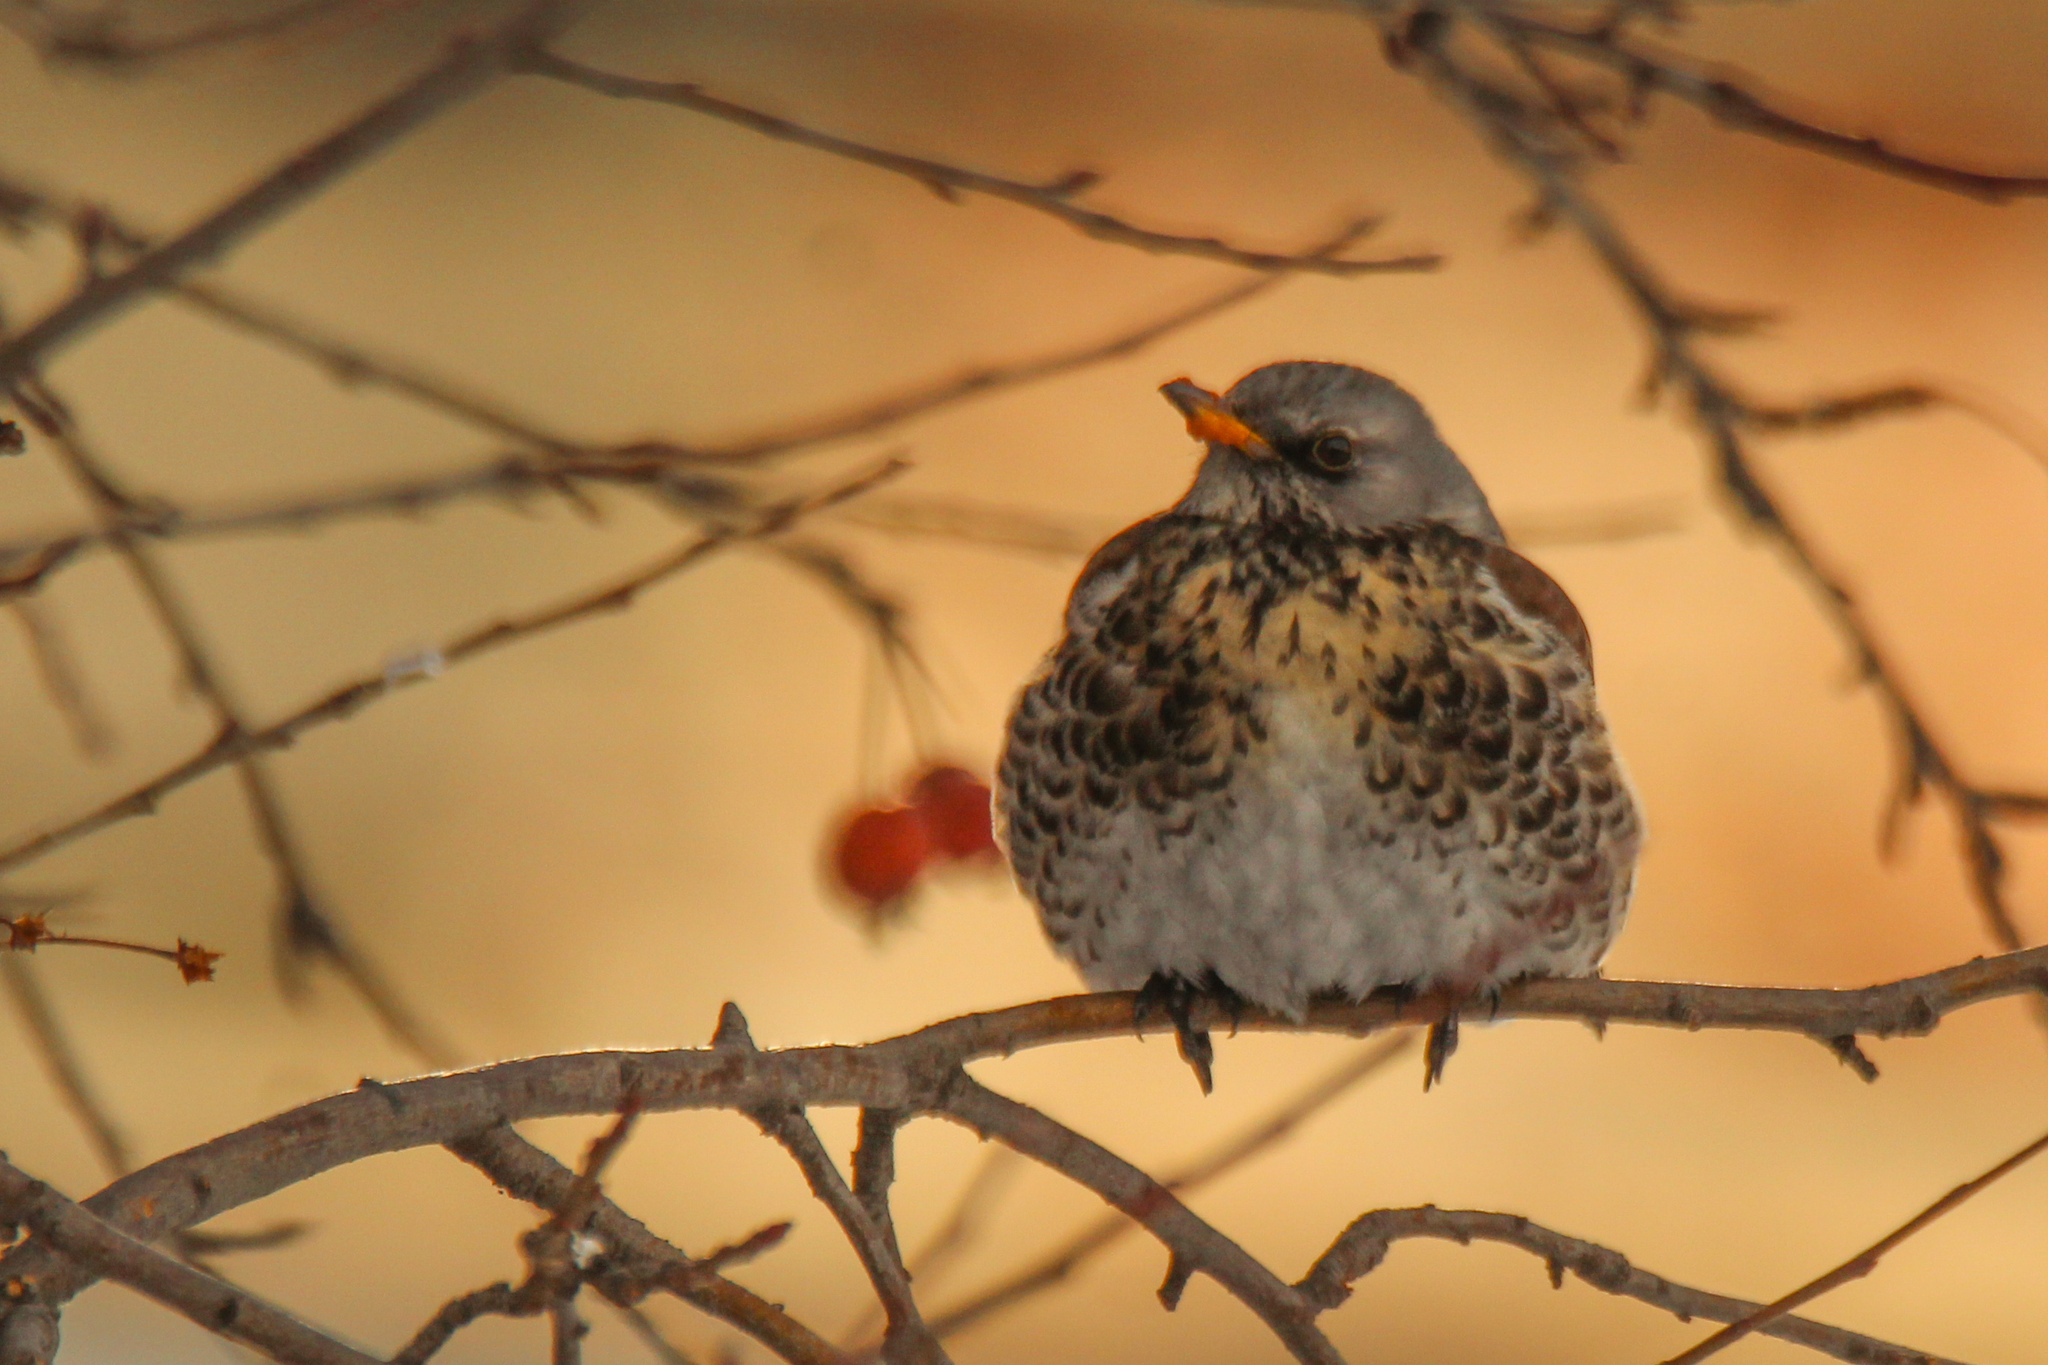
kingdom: Animalia
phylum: Chordata
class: Aves
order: Passeriformes
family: Turdidae
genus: Turdus
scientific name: Turdus pilaris
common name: Fieldfare
